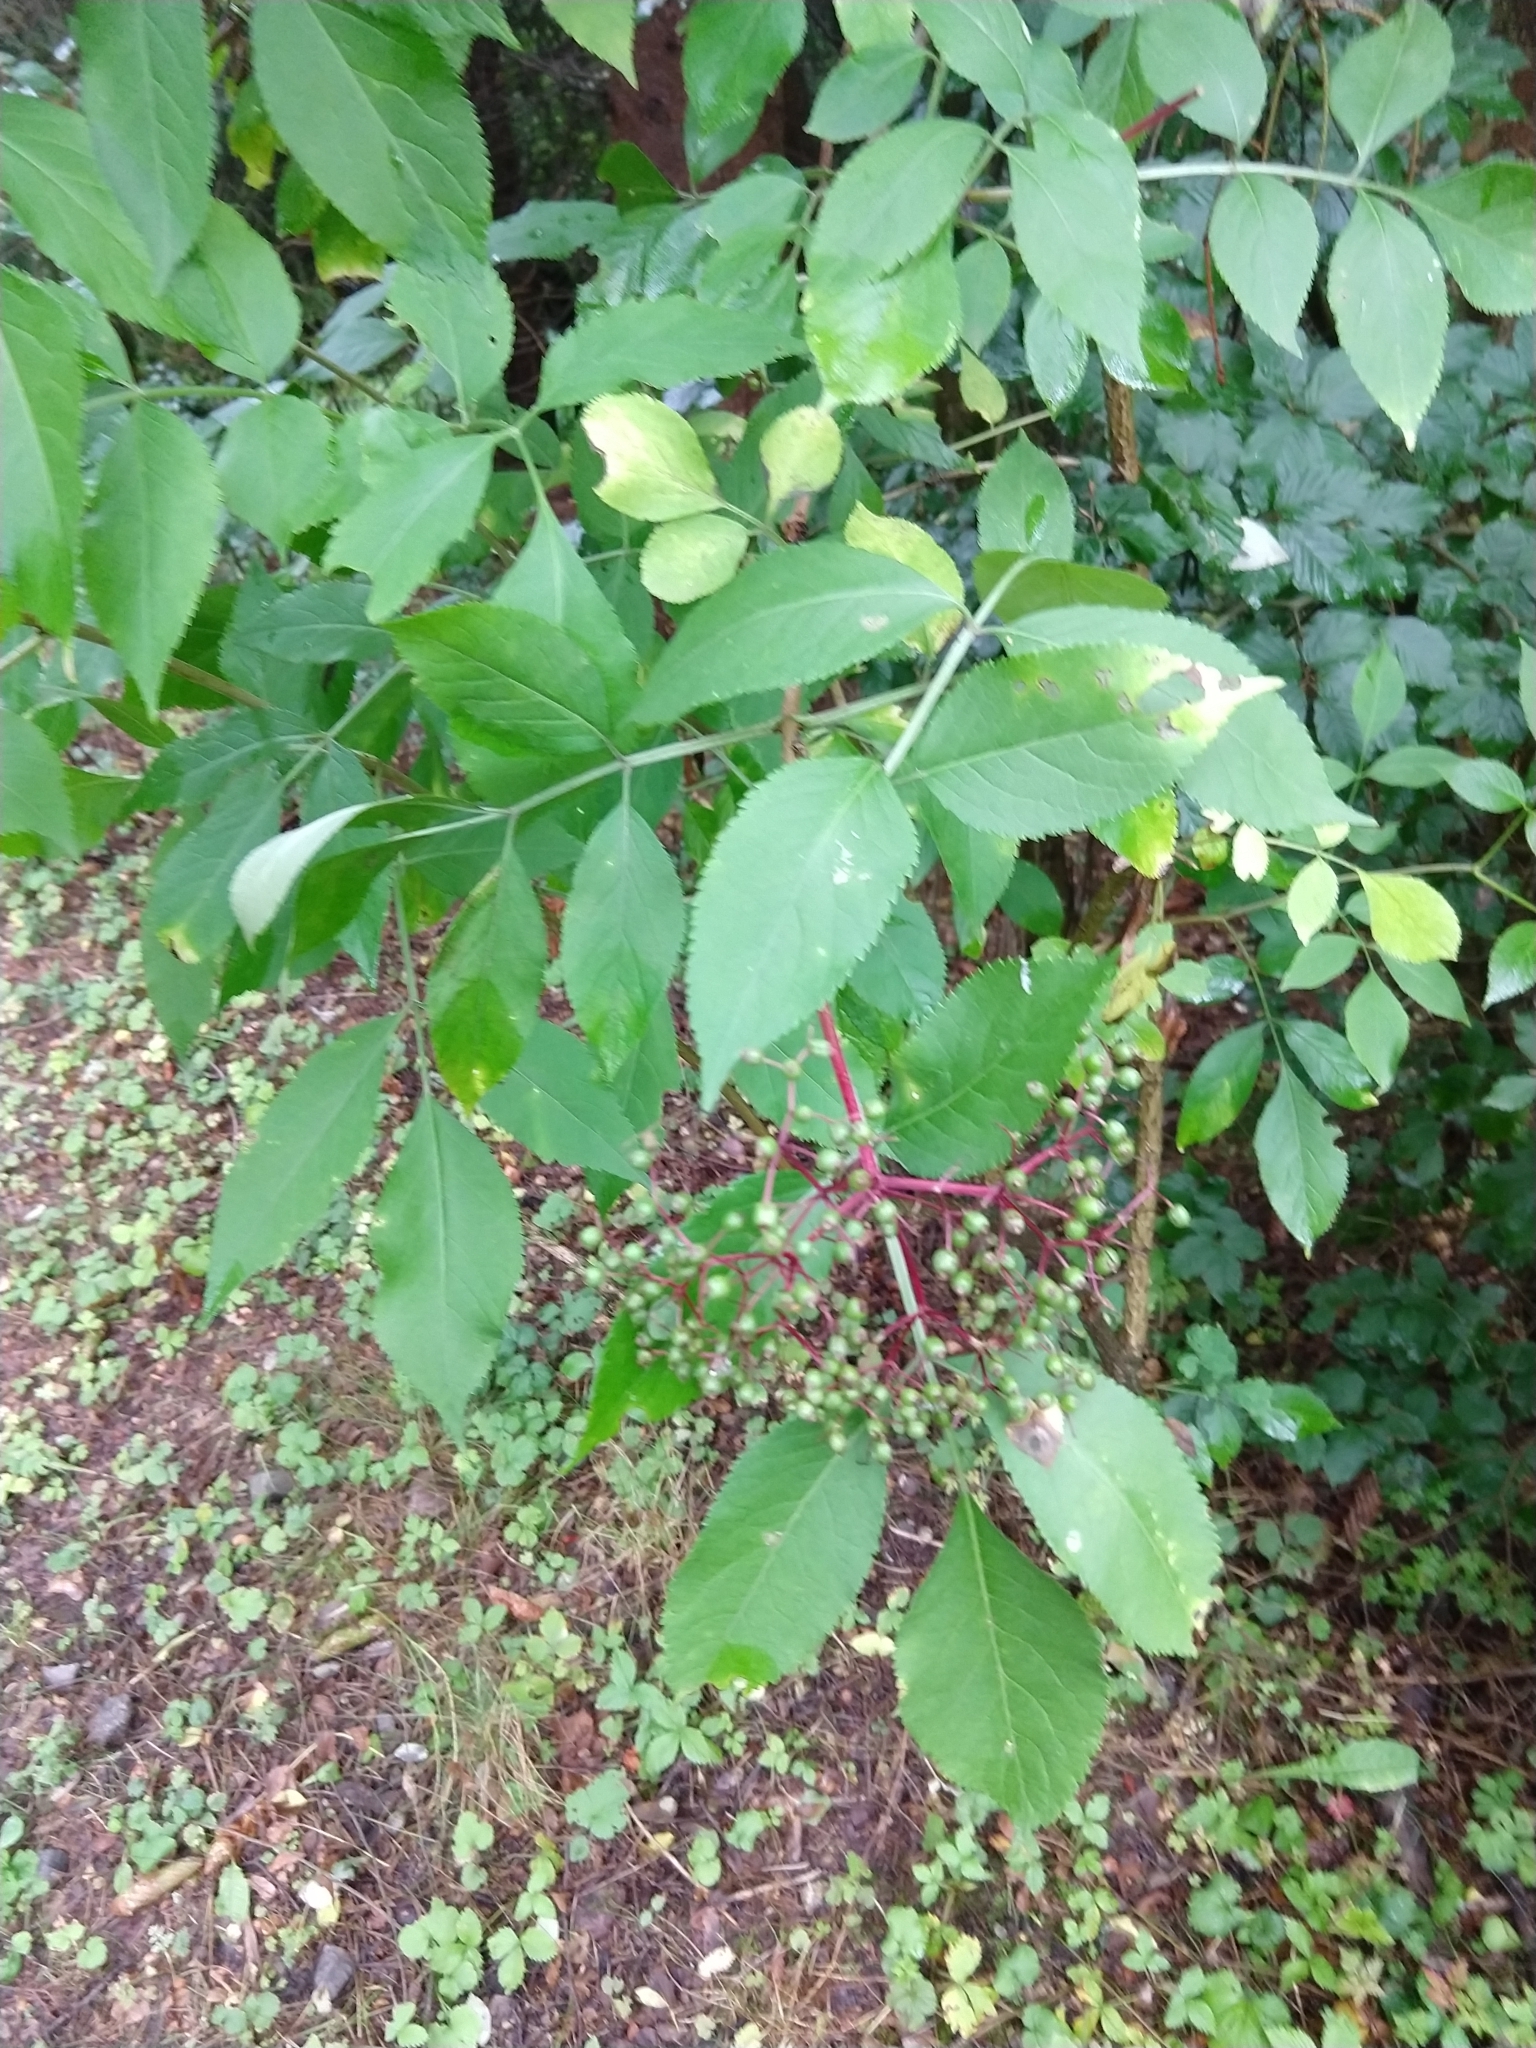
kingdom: Plantae
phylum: Tracheophyta
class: Magnoliopsida
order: Dipsacales
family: Viburnaceae
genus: Sambucus
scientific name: Sambucus nigra
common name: Elder
